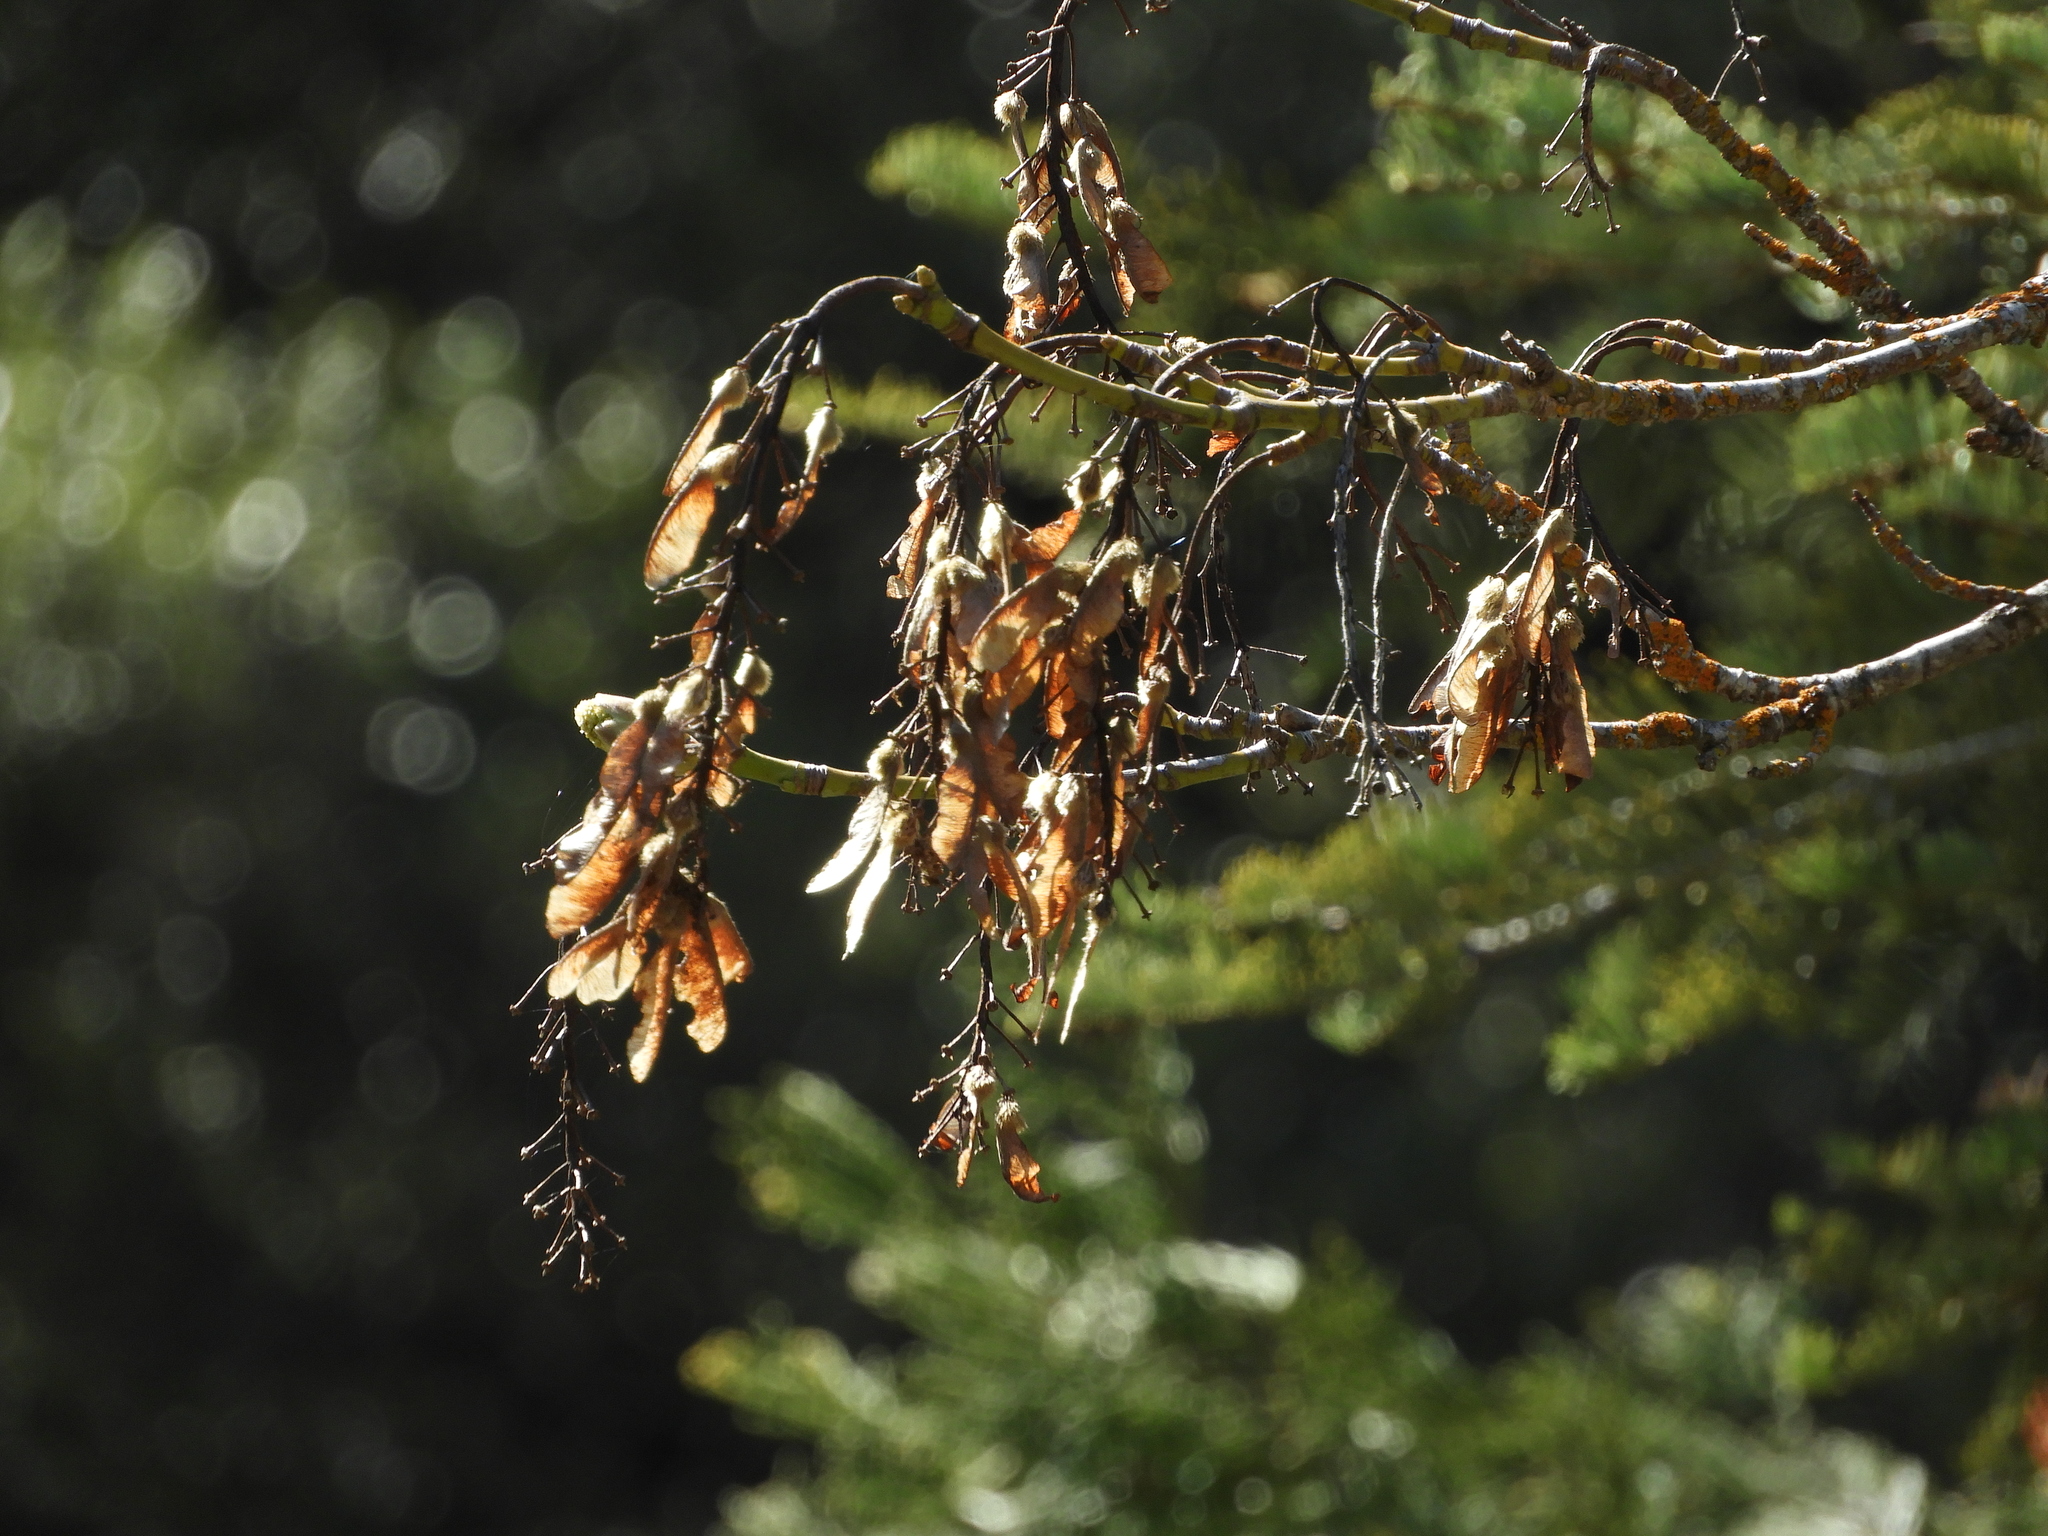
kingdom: Plantae
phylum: Tracheophyta
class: Magnoliopsida
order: Sapindales
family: Sapindaceae
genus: Acer
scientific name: Acer macrophyllum
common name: Oregon maple
